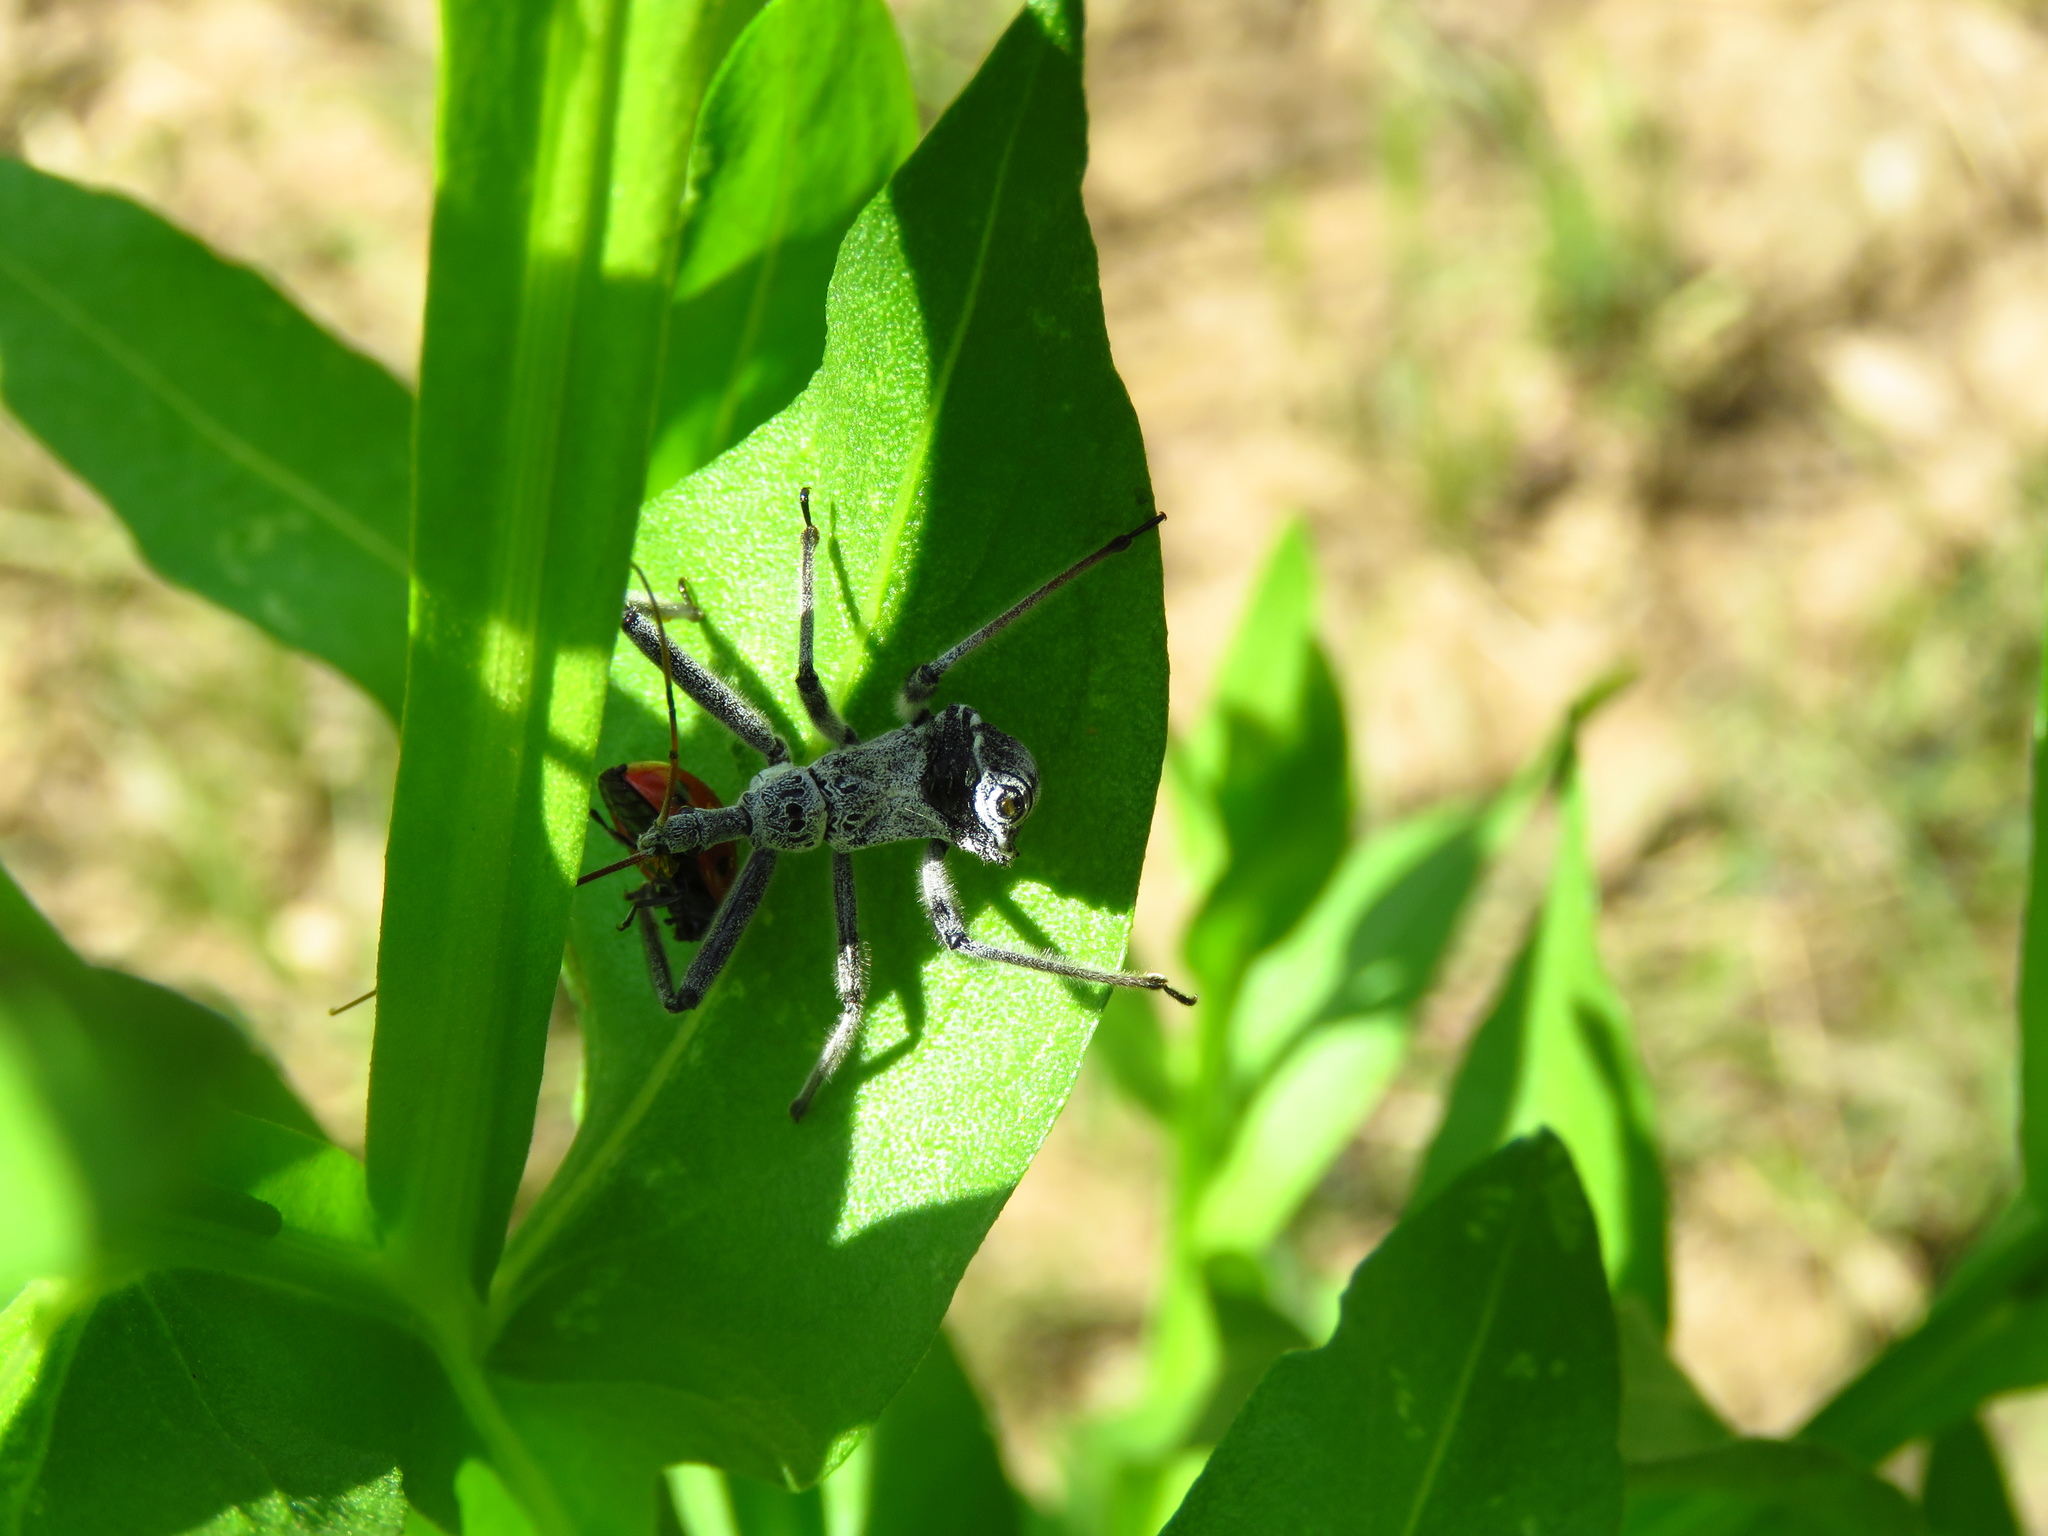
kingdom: Animalia
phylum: Arthropoda
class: Insecta
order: Hemiptera
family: Reduviidae
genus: Arilus
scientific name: Arilus cristatus
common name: North american wheel bug
